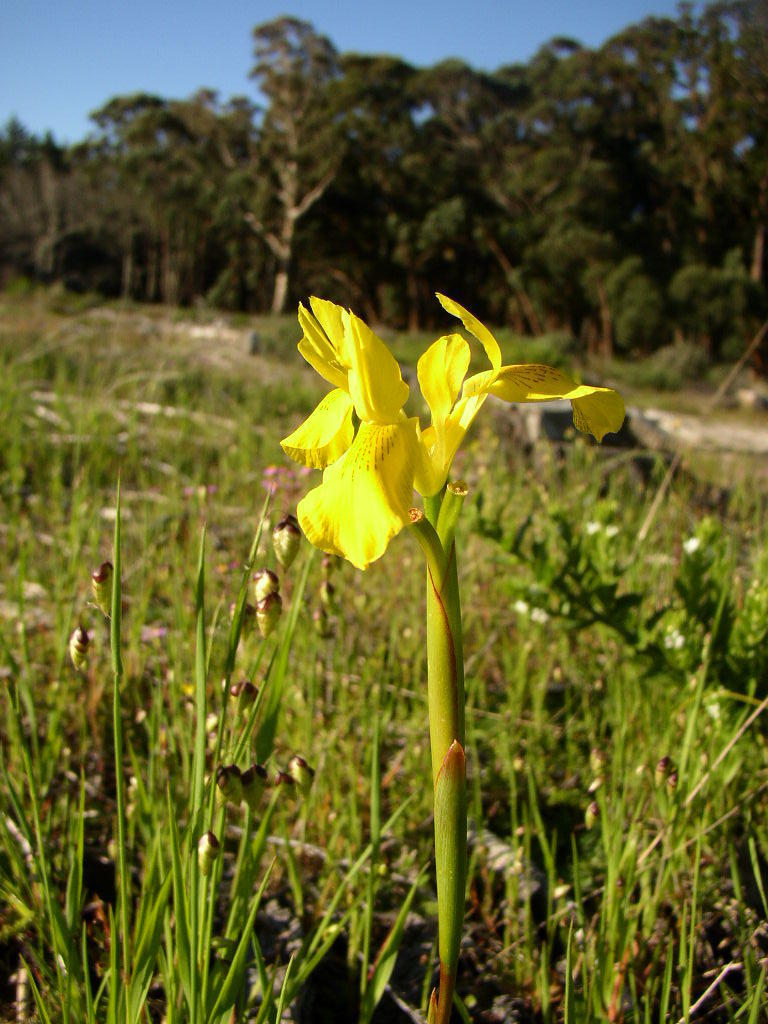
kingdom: Plantae
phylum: Tracheophyta
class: Liliopsida
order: Asparagales
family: Iridaceae
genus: Moraea
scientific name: Moraea neglecta
